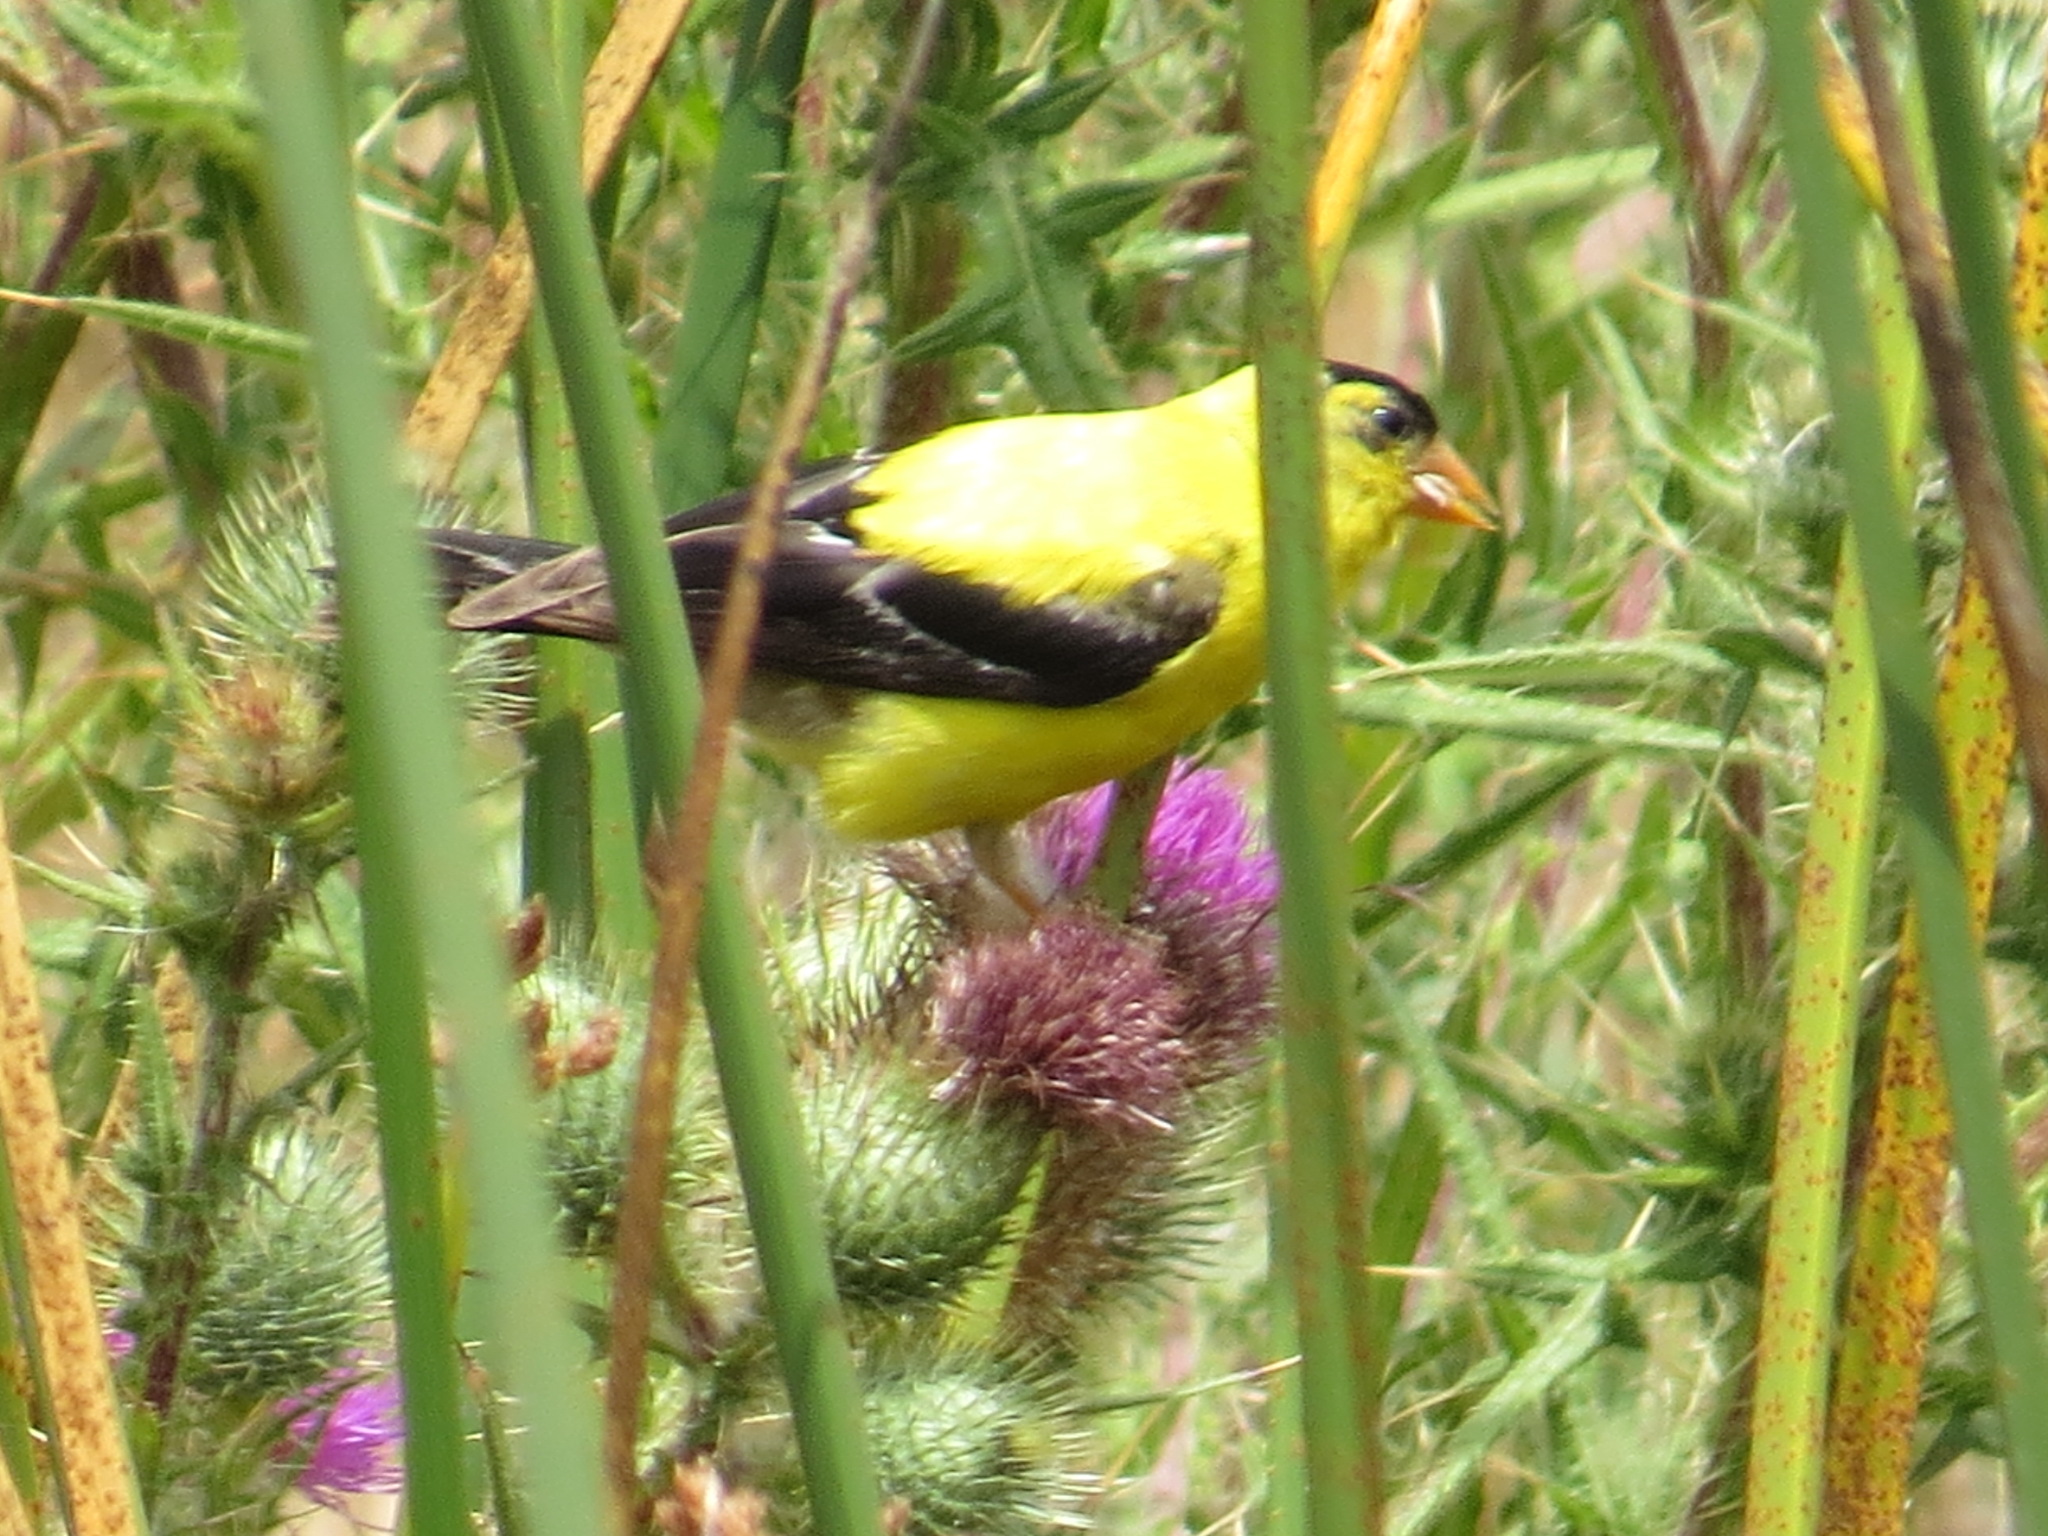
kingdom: Animalia
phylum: Chordata
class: Aves
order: Passeriformes
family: Fringillidae
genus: Spinus
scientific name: Spinus tristis
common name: American goldfinch
